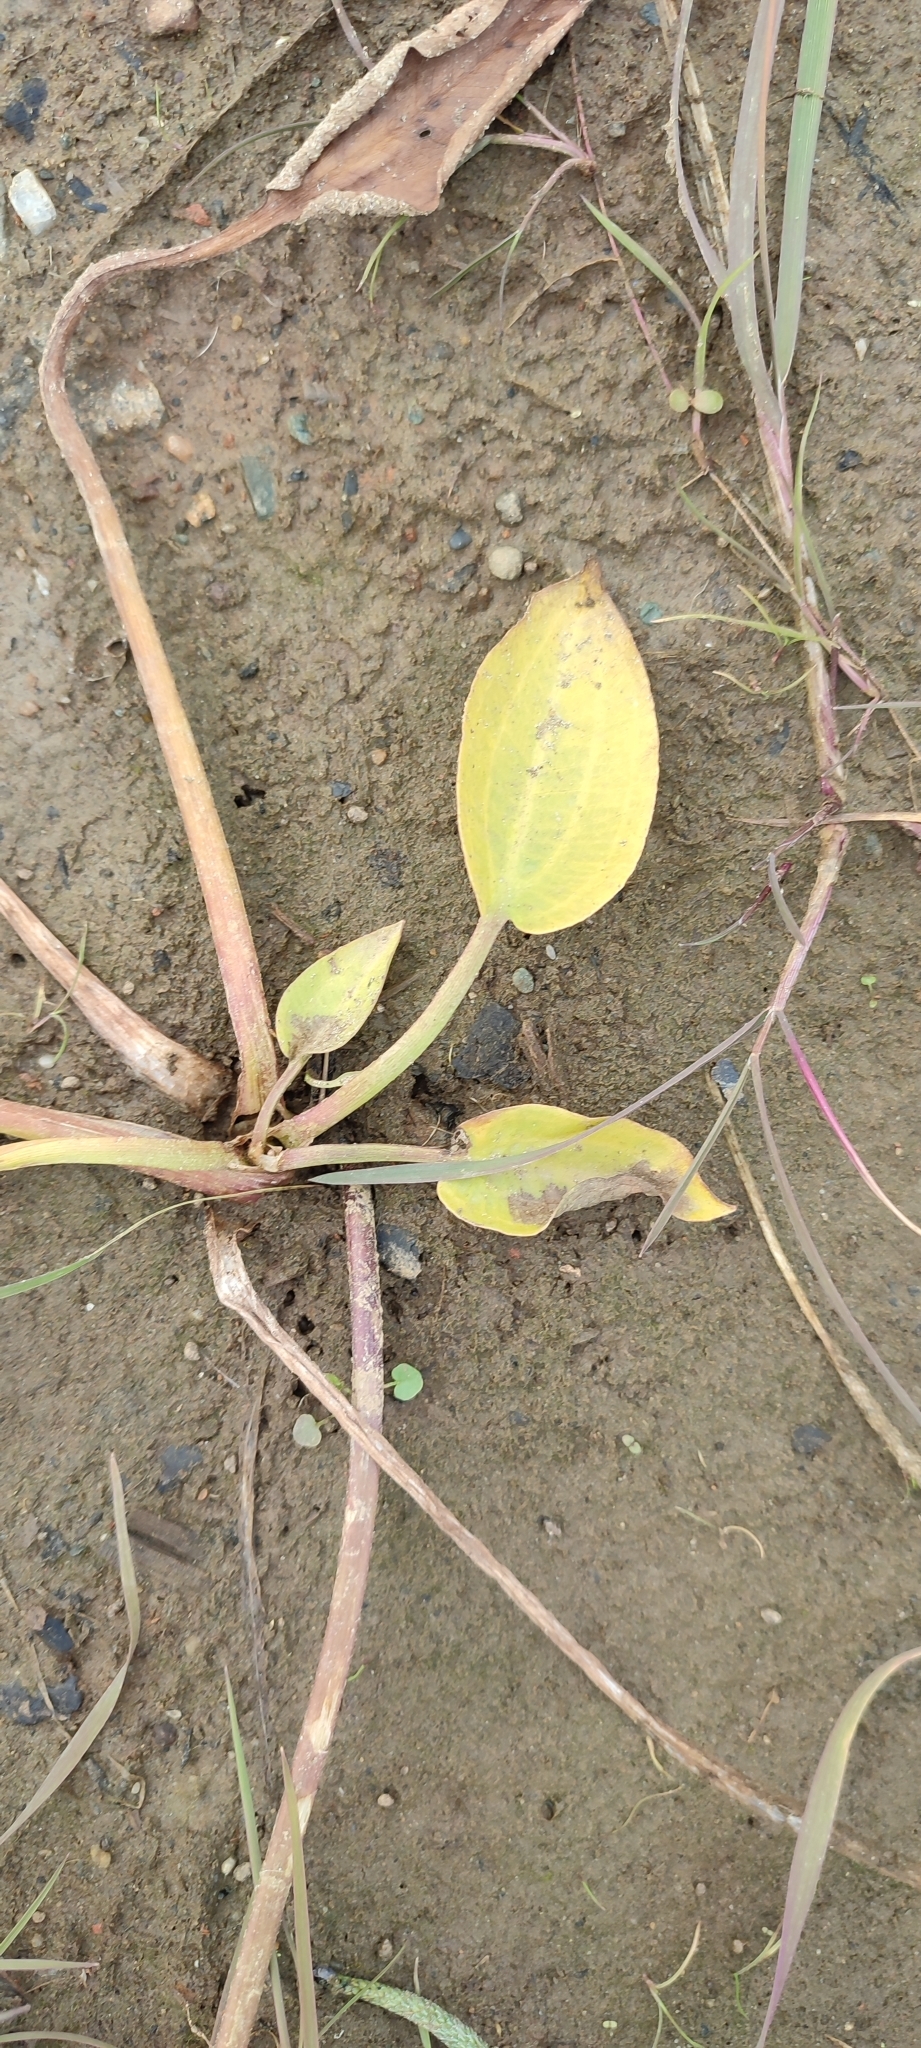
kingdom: Plantae
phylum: Tracheophyta
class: Liliopsida
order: Alismatales
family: Alismataceae
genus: Alisma
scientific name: Alisma plantago-aquatica
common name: Water-plantain
